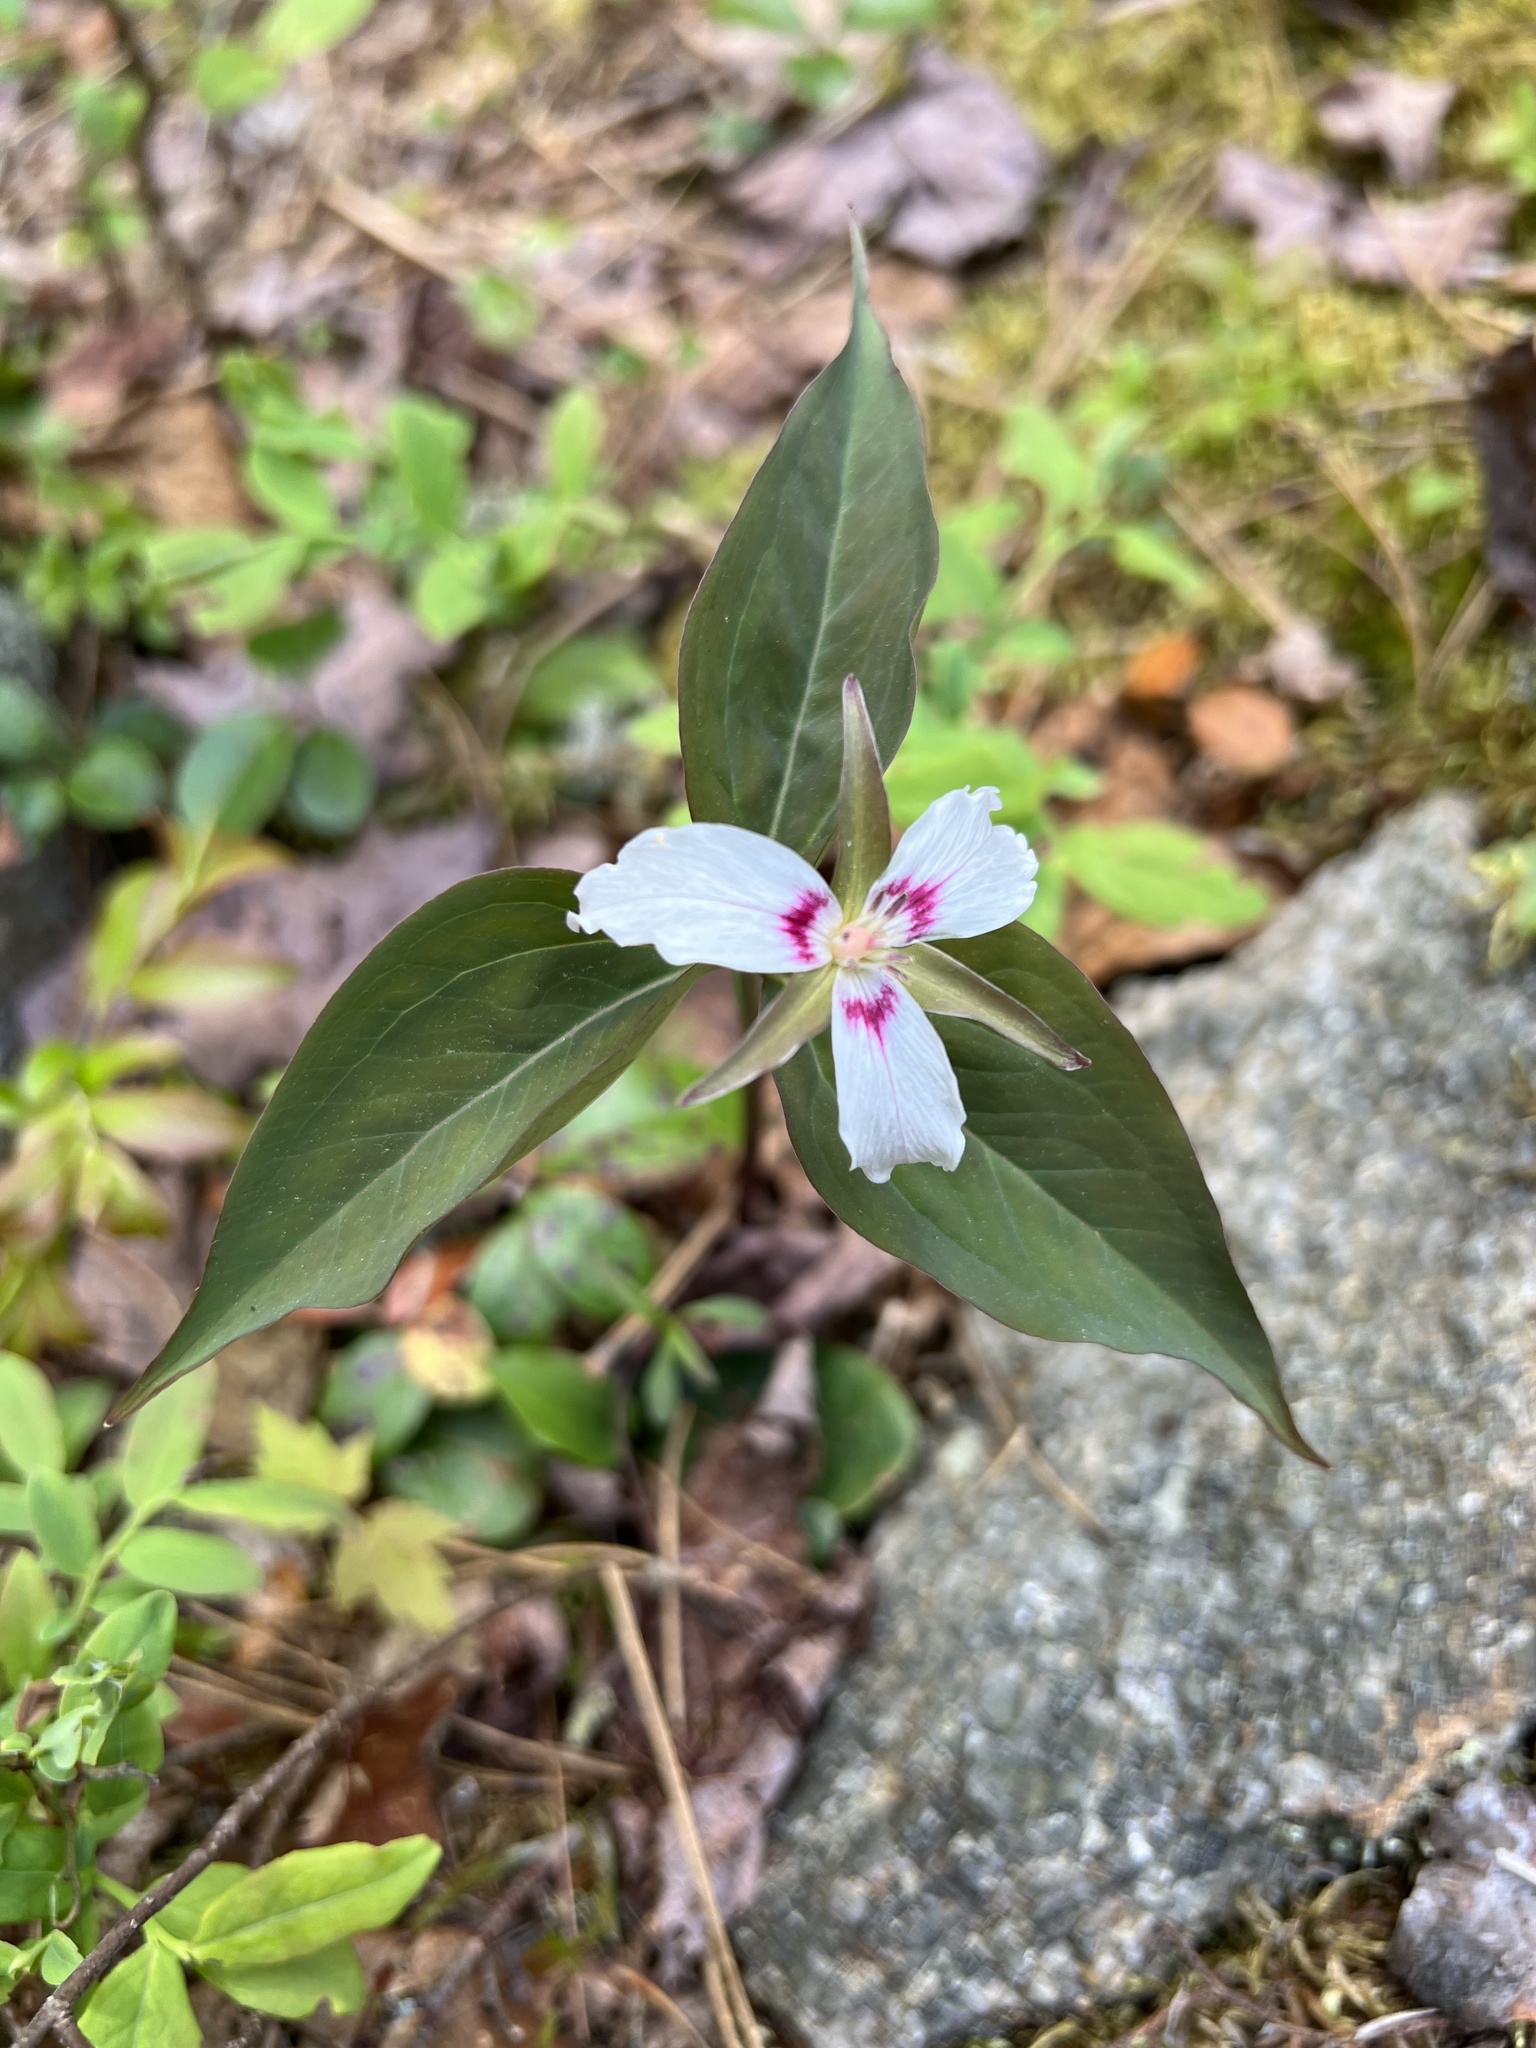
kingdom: Plantae
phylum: Tracheophyta
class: Liliopsida
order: Liliales
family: Melanthiaceae
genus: Trillium
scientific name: Trillium undulatum
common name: Paint trillium
